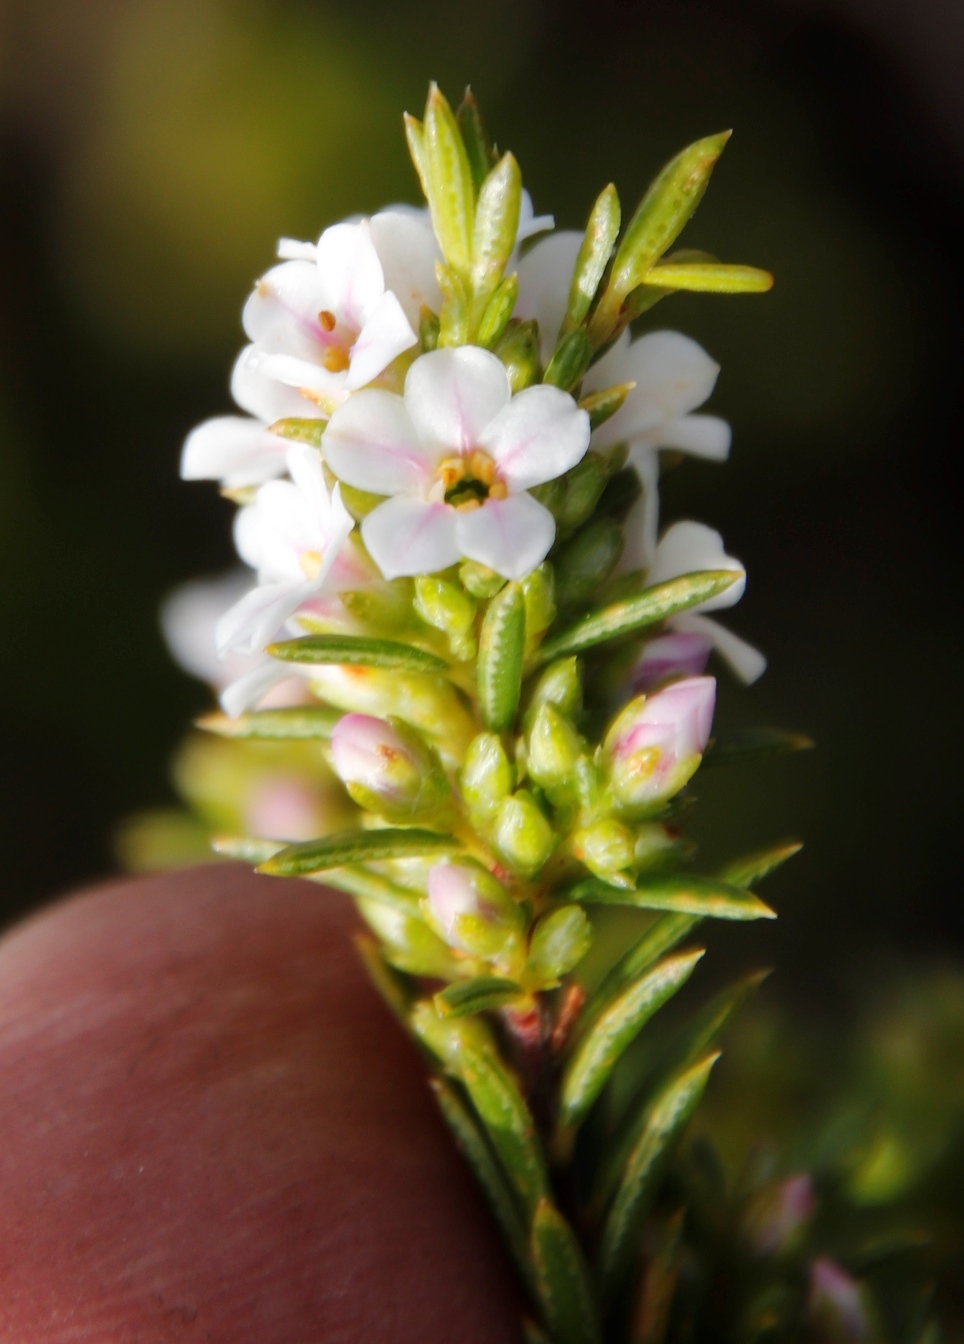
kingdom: Plantae
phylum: Tracheophyta
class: Magnoliopsida
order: Sapindales
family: Rutaceae
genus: Coleonema
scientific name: Coleonema album
